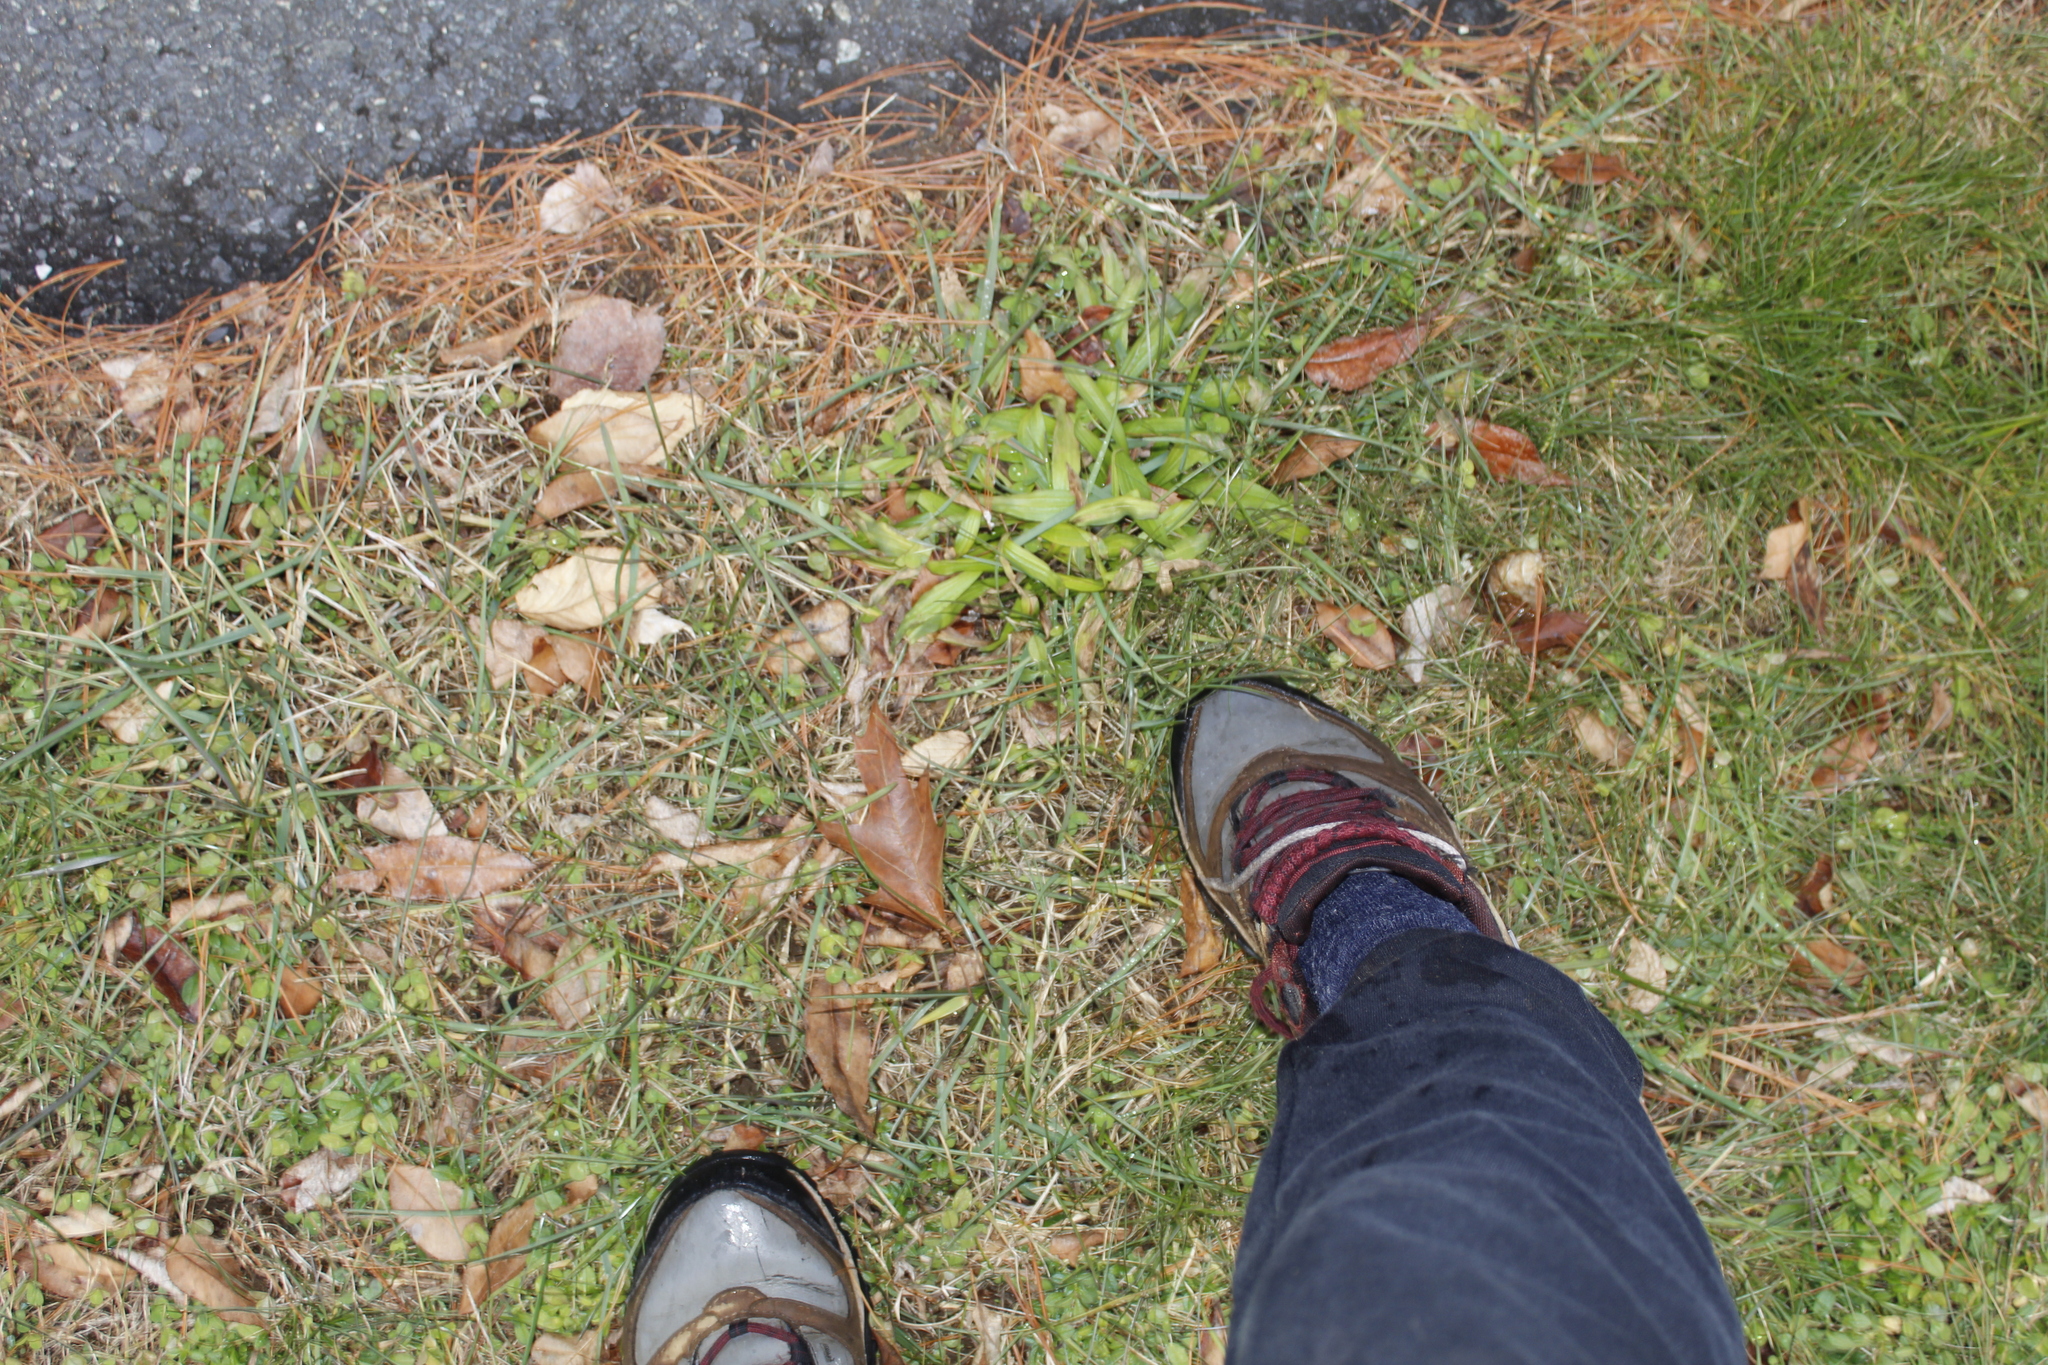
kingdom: Plantae
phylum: Tracheophyta
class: Magnoliopsida
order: Lamiales
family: Plantaginaceae
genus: Plantago
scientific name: Plantago lanceolata
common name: Ribwort plantain
